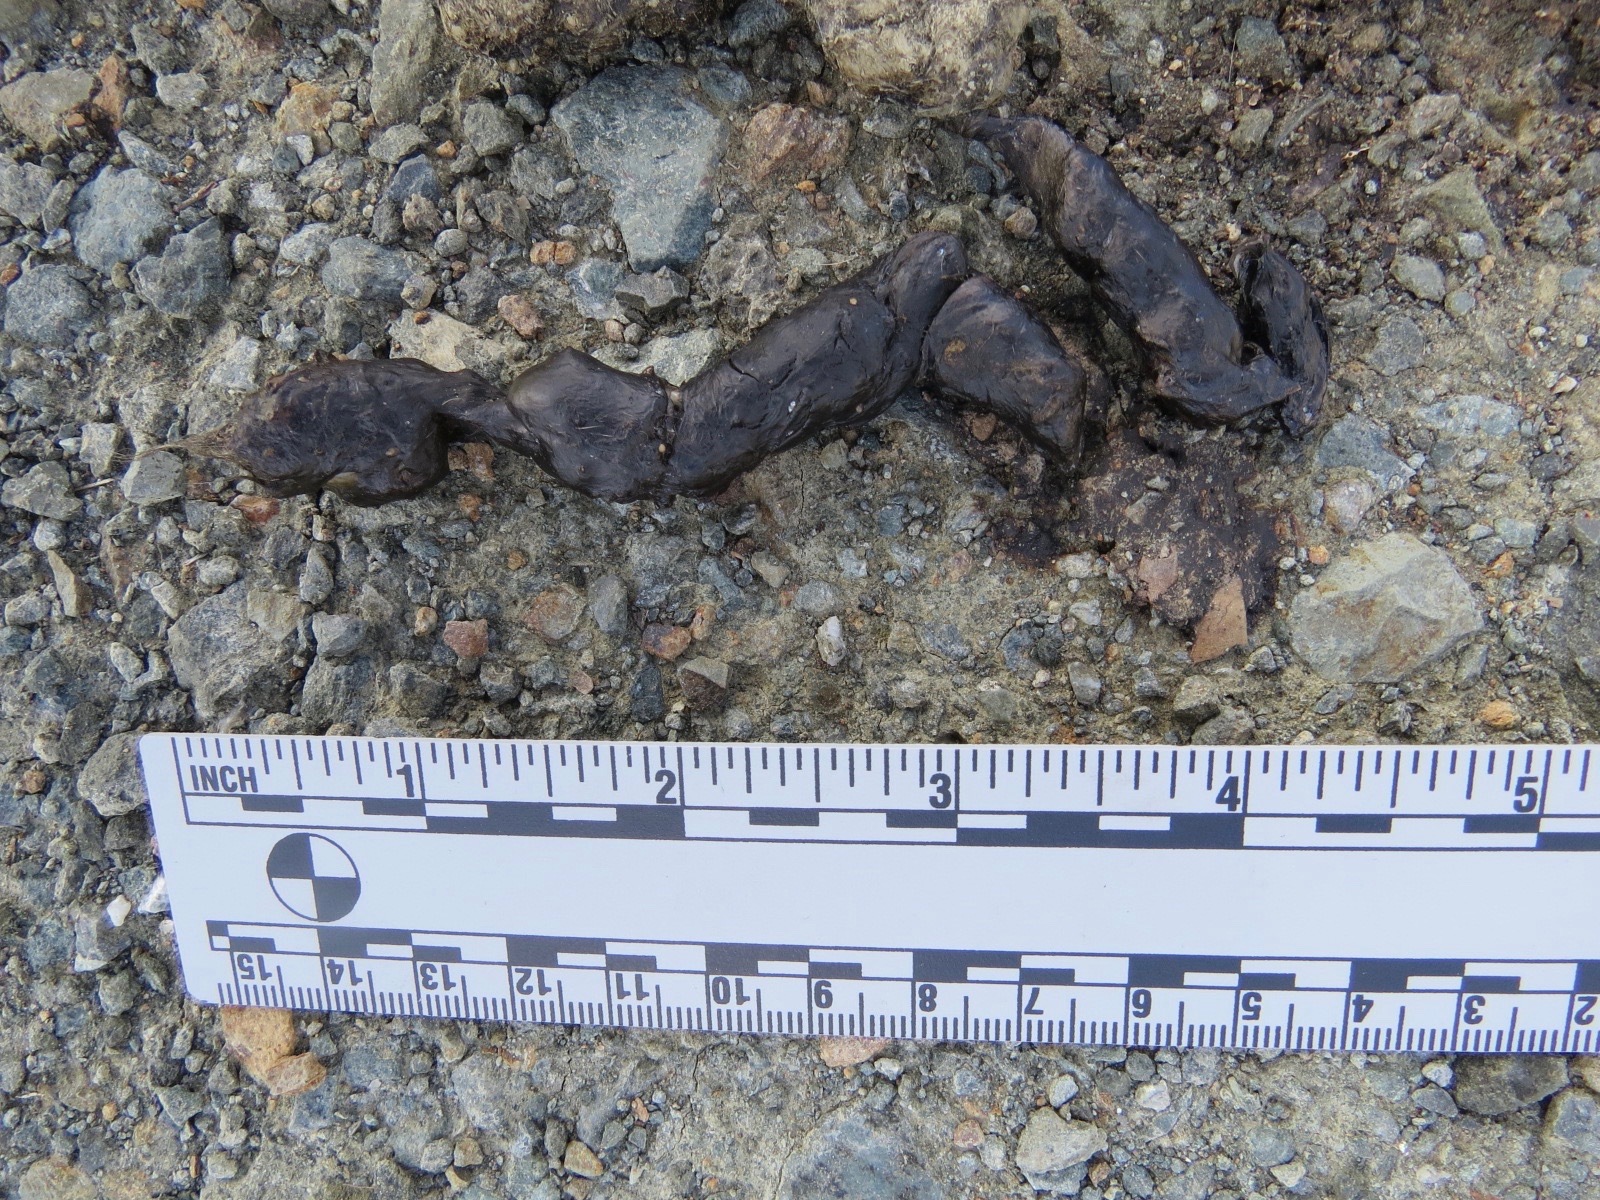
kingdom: Animalia
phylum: Chordata
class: Mammalia
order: Carnivora
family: Canidae
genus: Urocyon
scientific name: Urocyon cinereoargenteus
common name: Gray fox
